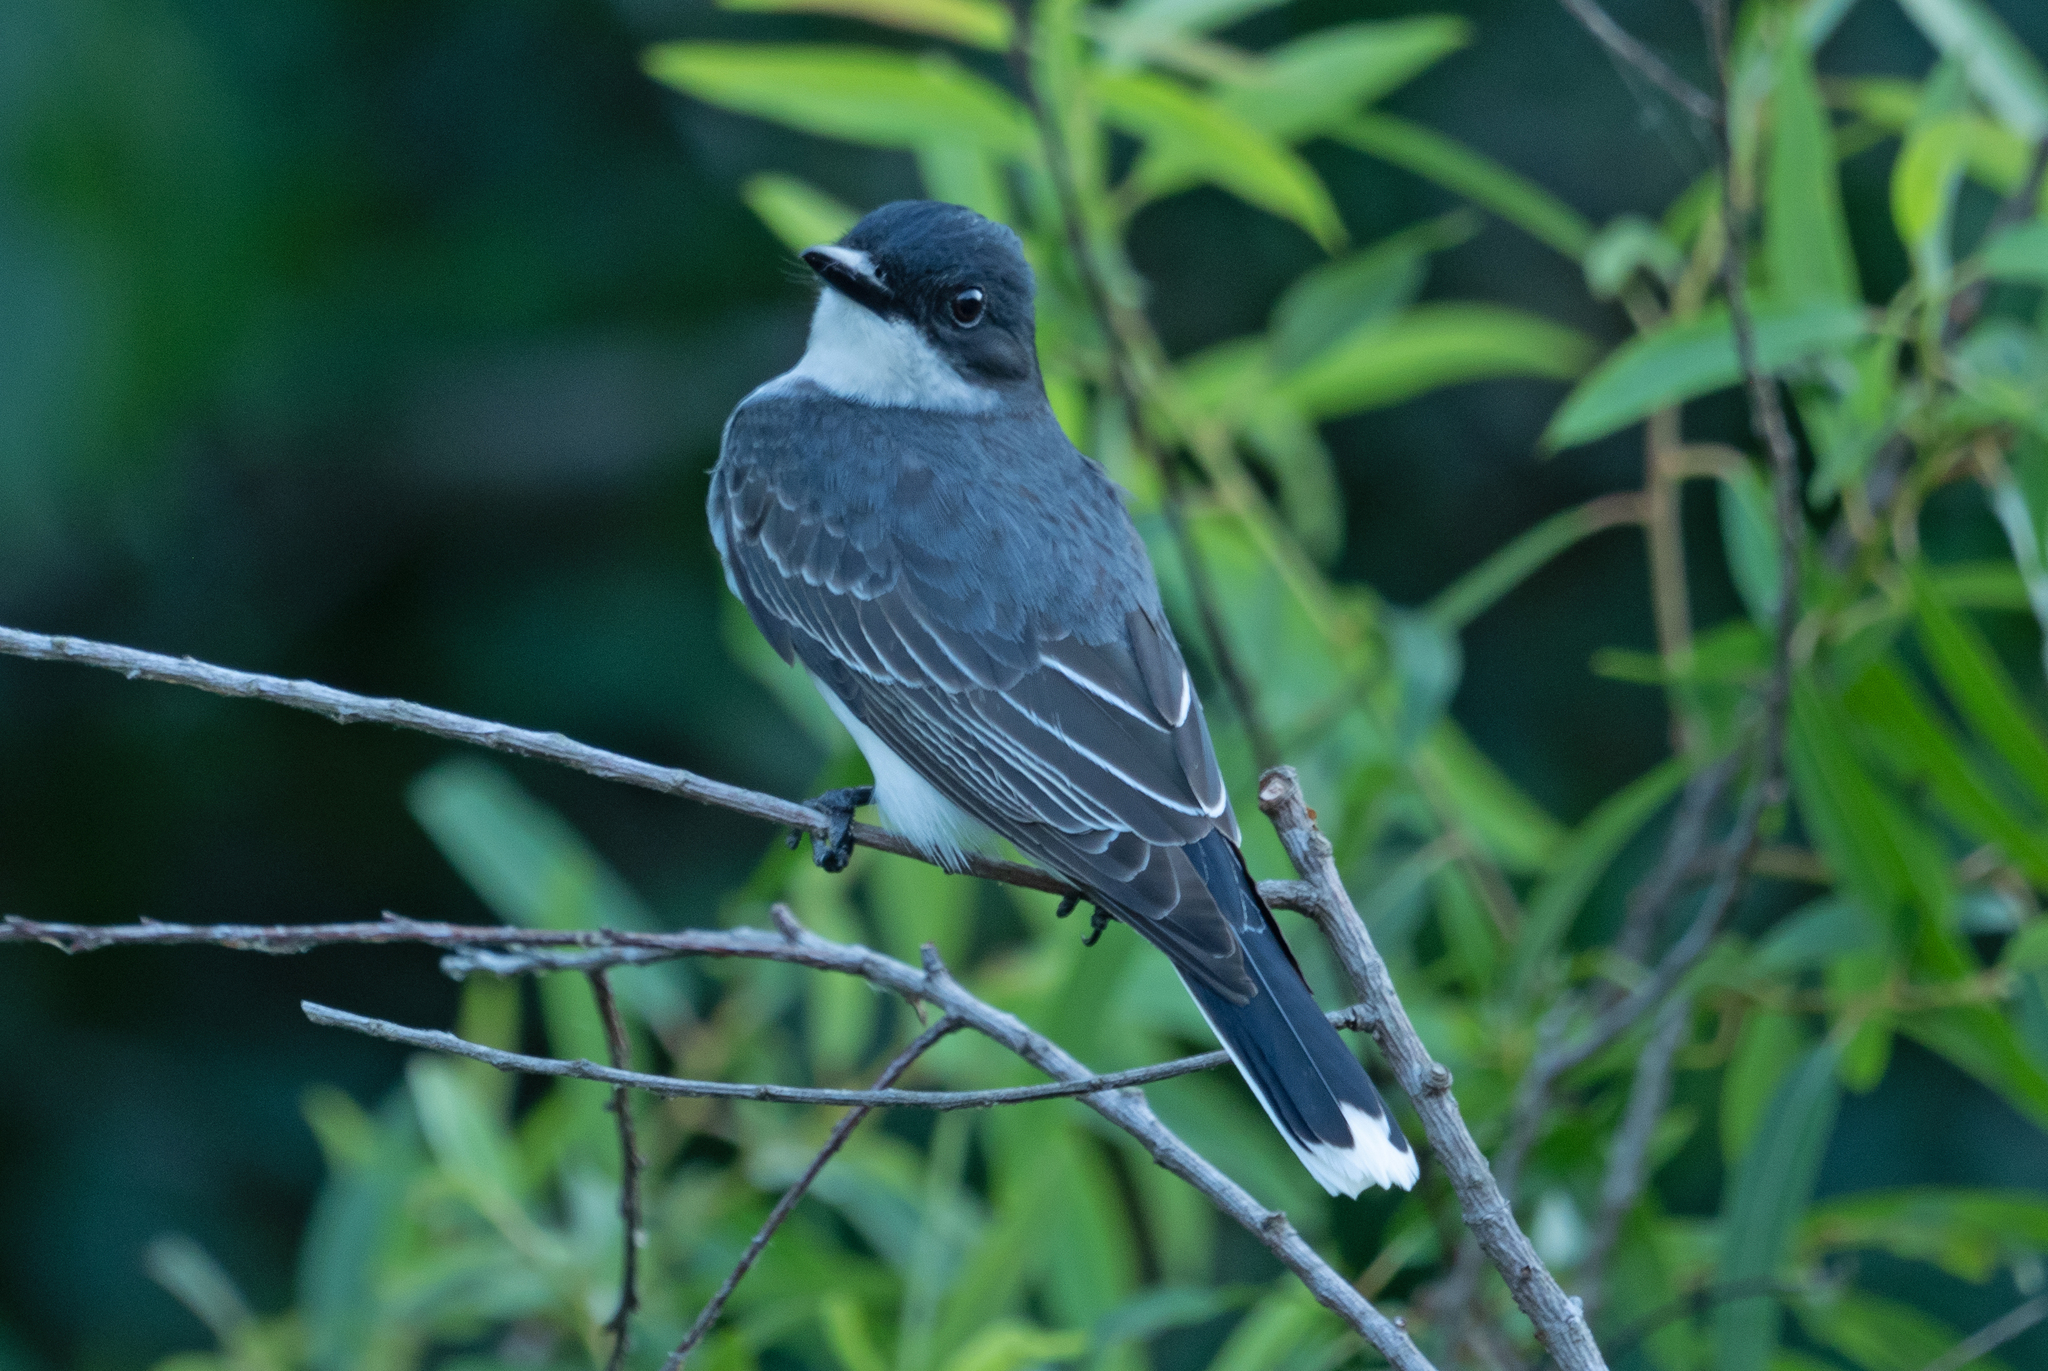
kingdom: Animalia
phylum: Chordata
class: Aves
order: Passeriformes
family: Tyrannidae
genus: Tyrannus
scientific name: Tyrannus tyrannus
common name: Eastern kingbird
